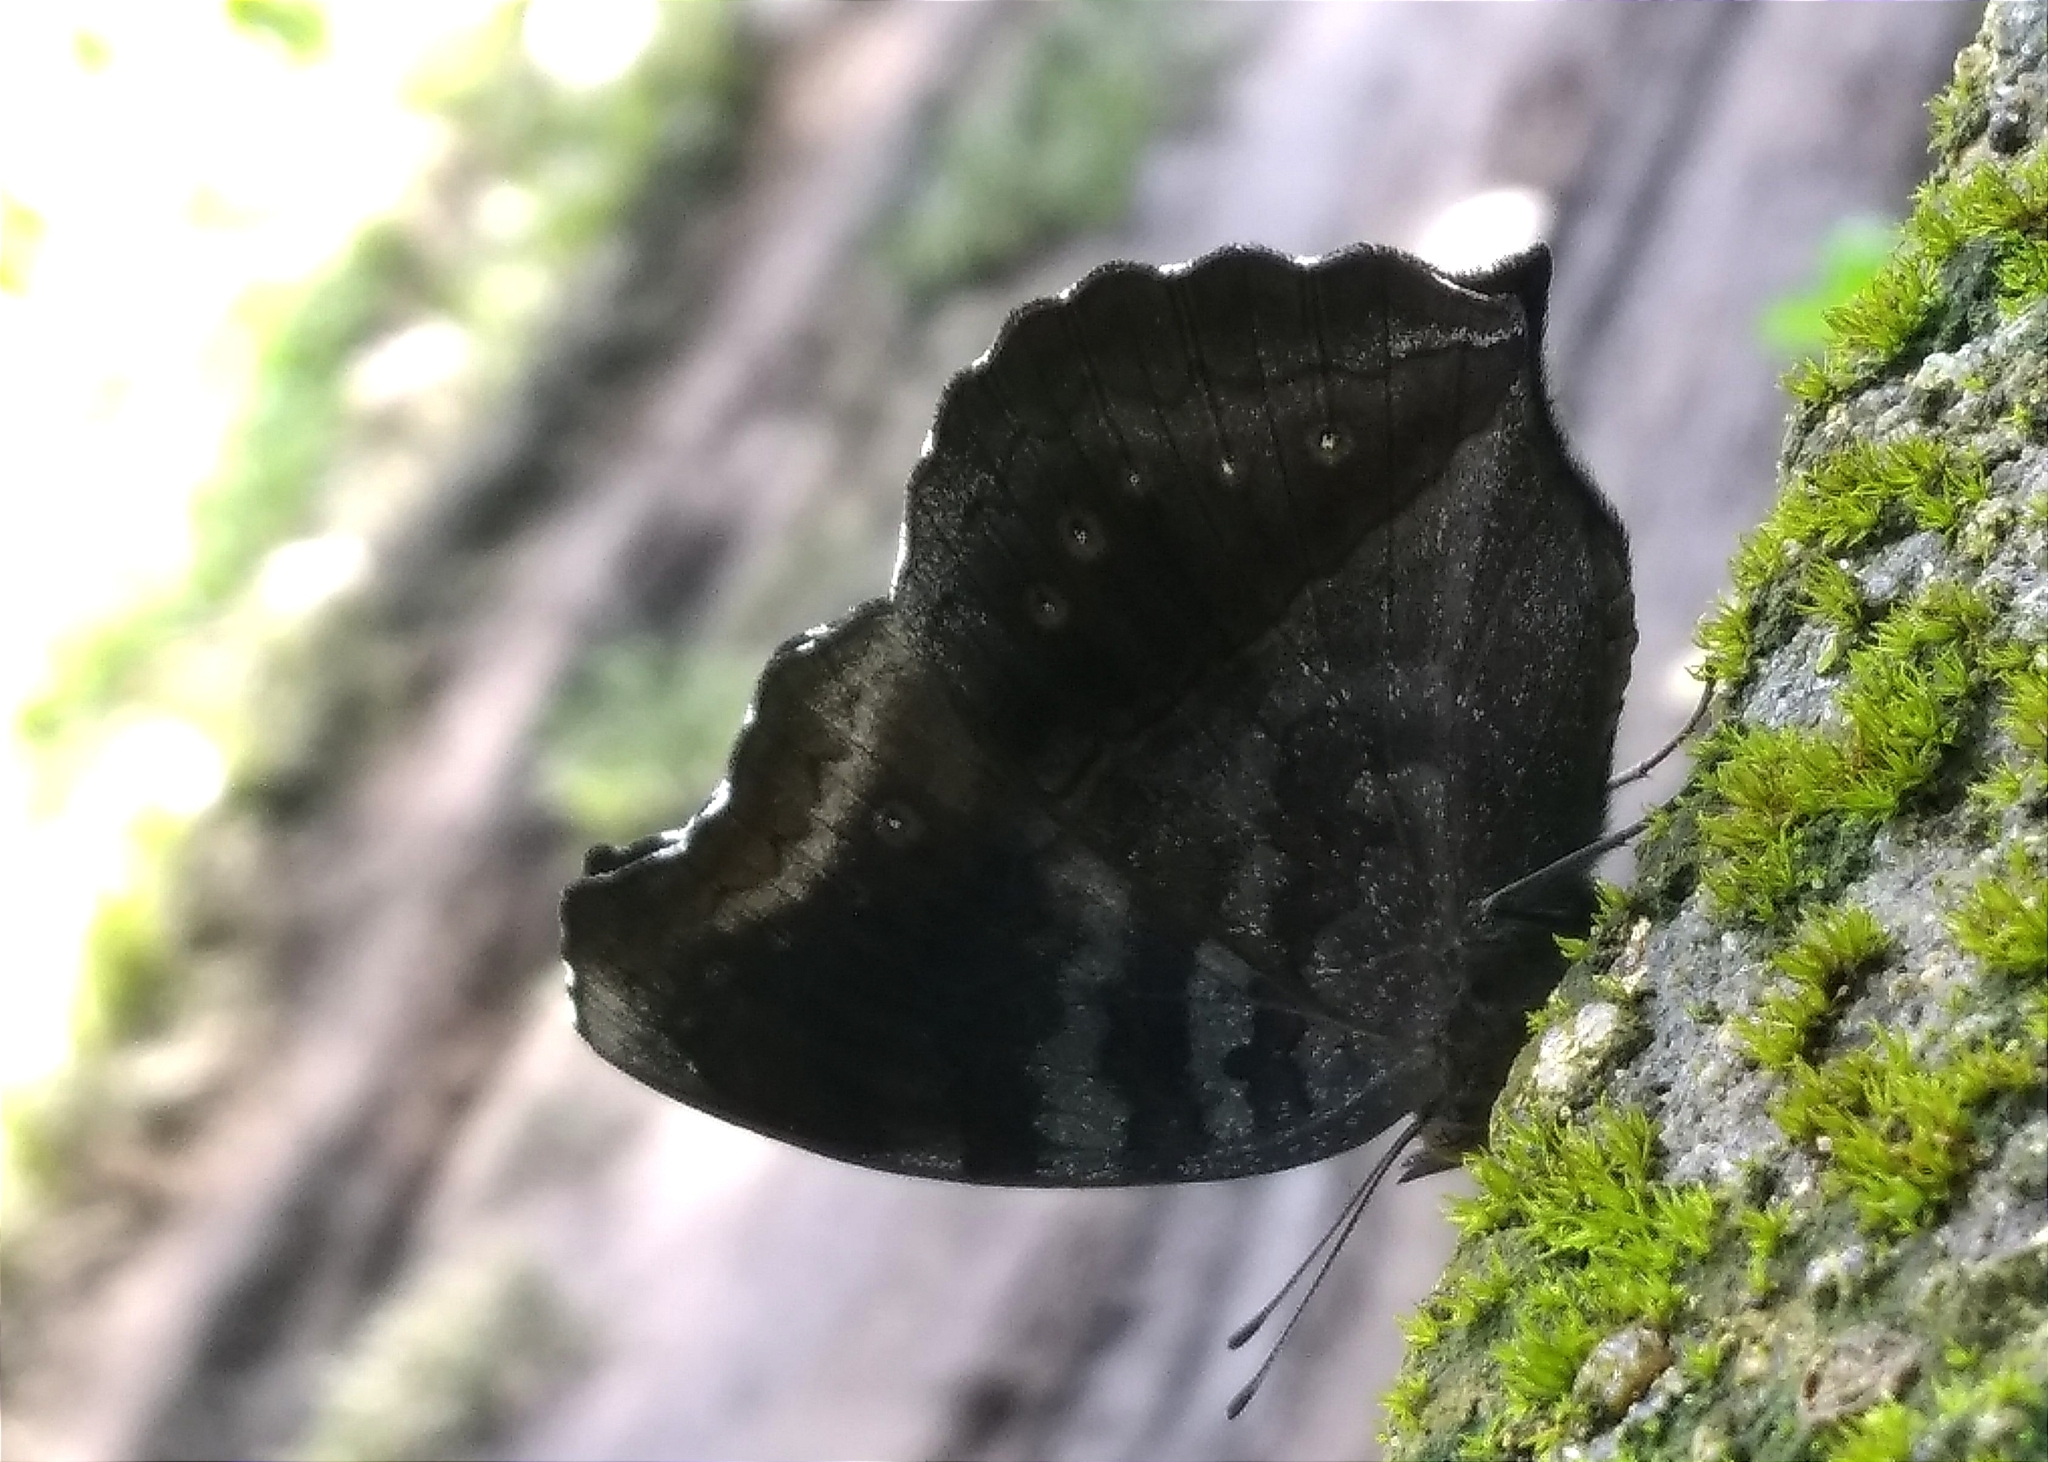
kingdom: Animalia
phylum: Arthropoda
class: Insecta
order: Lepidoptera
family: Nymphalidae
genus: Junonia
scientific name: Junonia iphita
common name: Chocolate pansy
